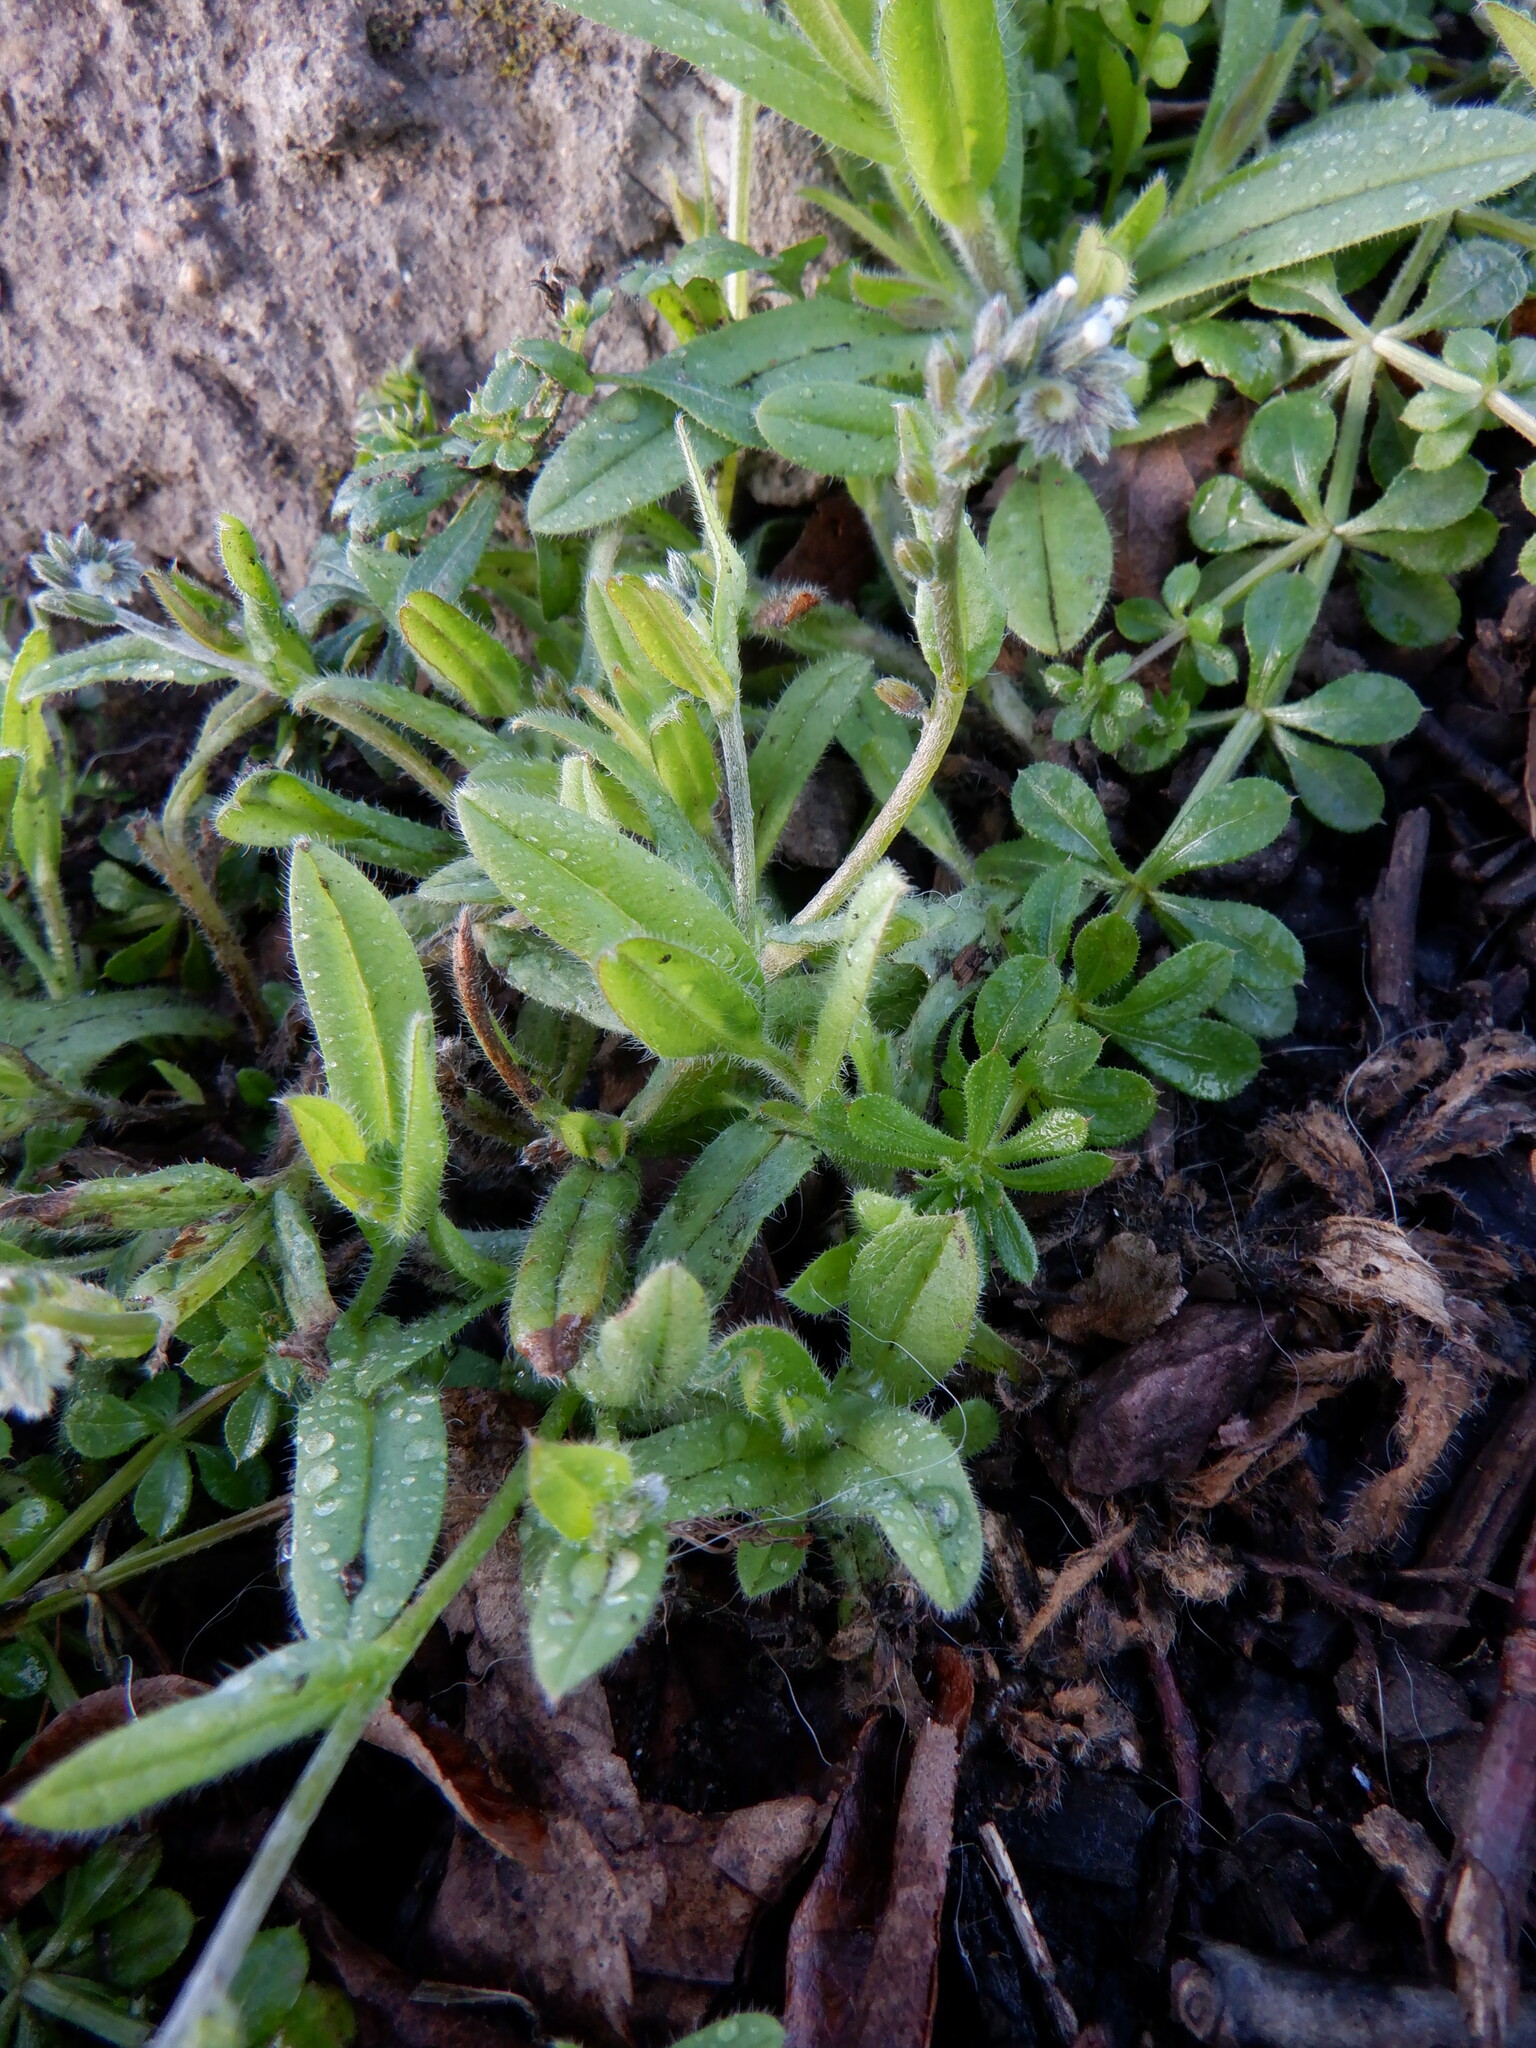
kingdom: Plantae
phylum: Tracheophyta
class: Magnoliopsida
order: Boraginales
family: Boraginaceae
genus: Myosotis
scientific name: Myosotis discolor
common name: Changing forget-me-not
